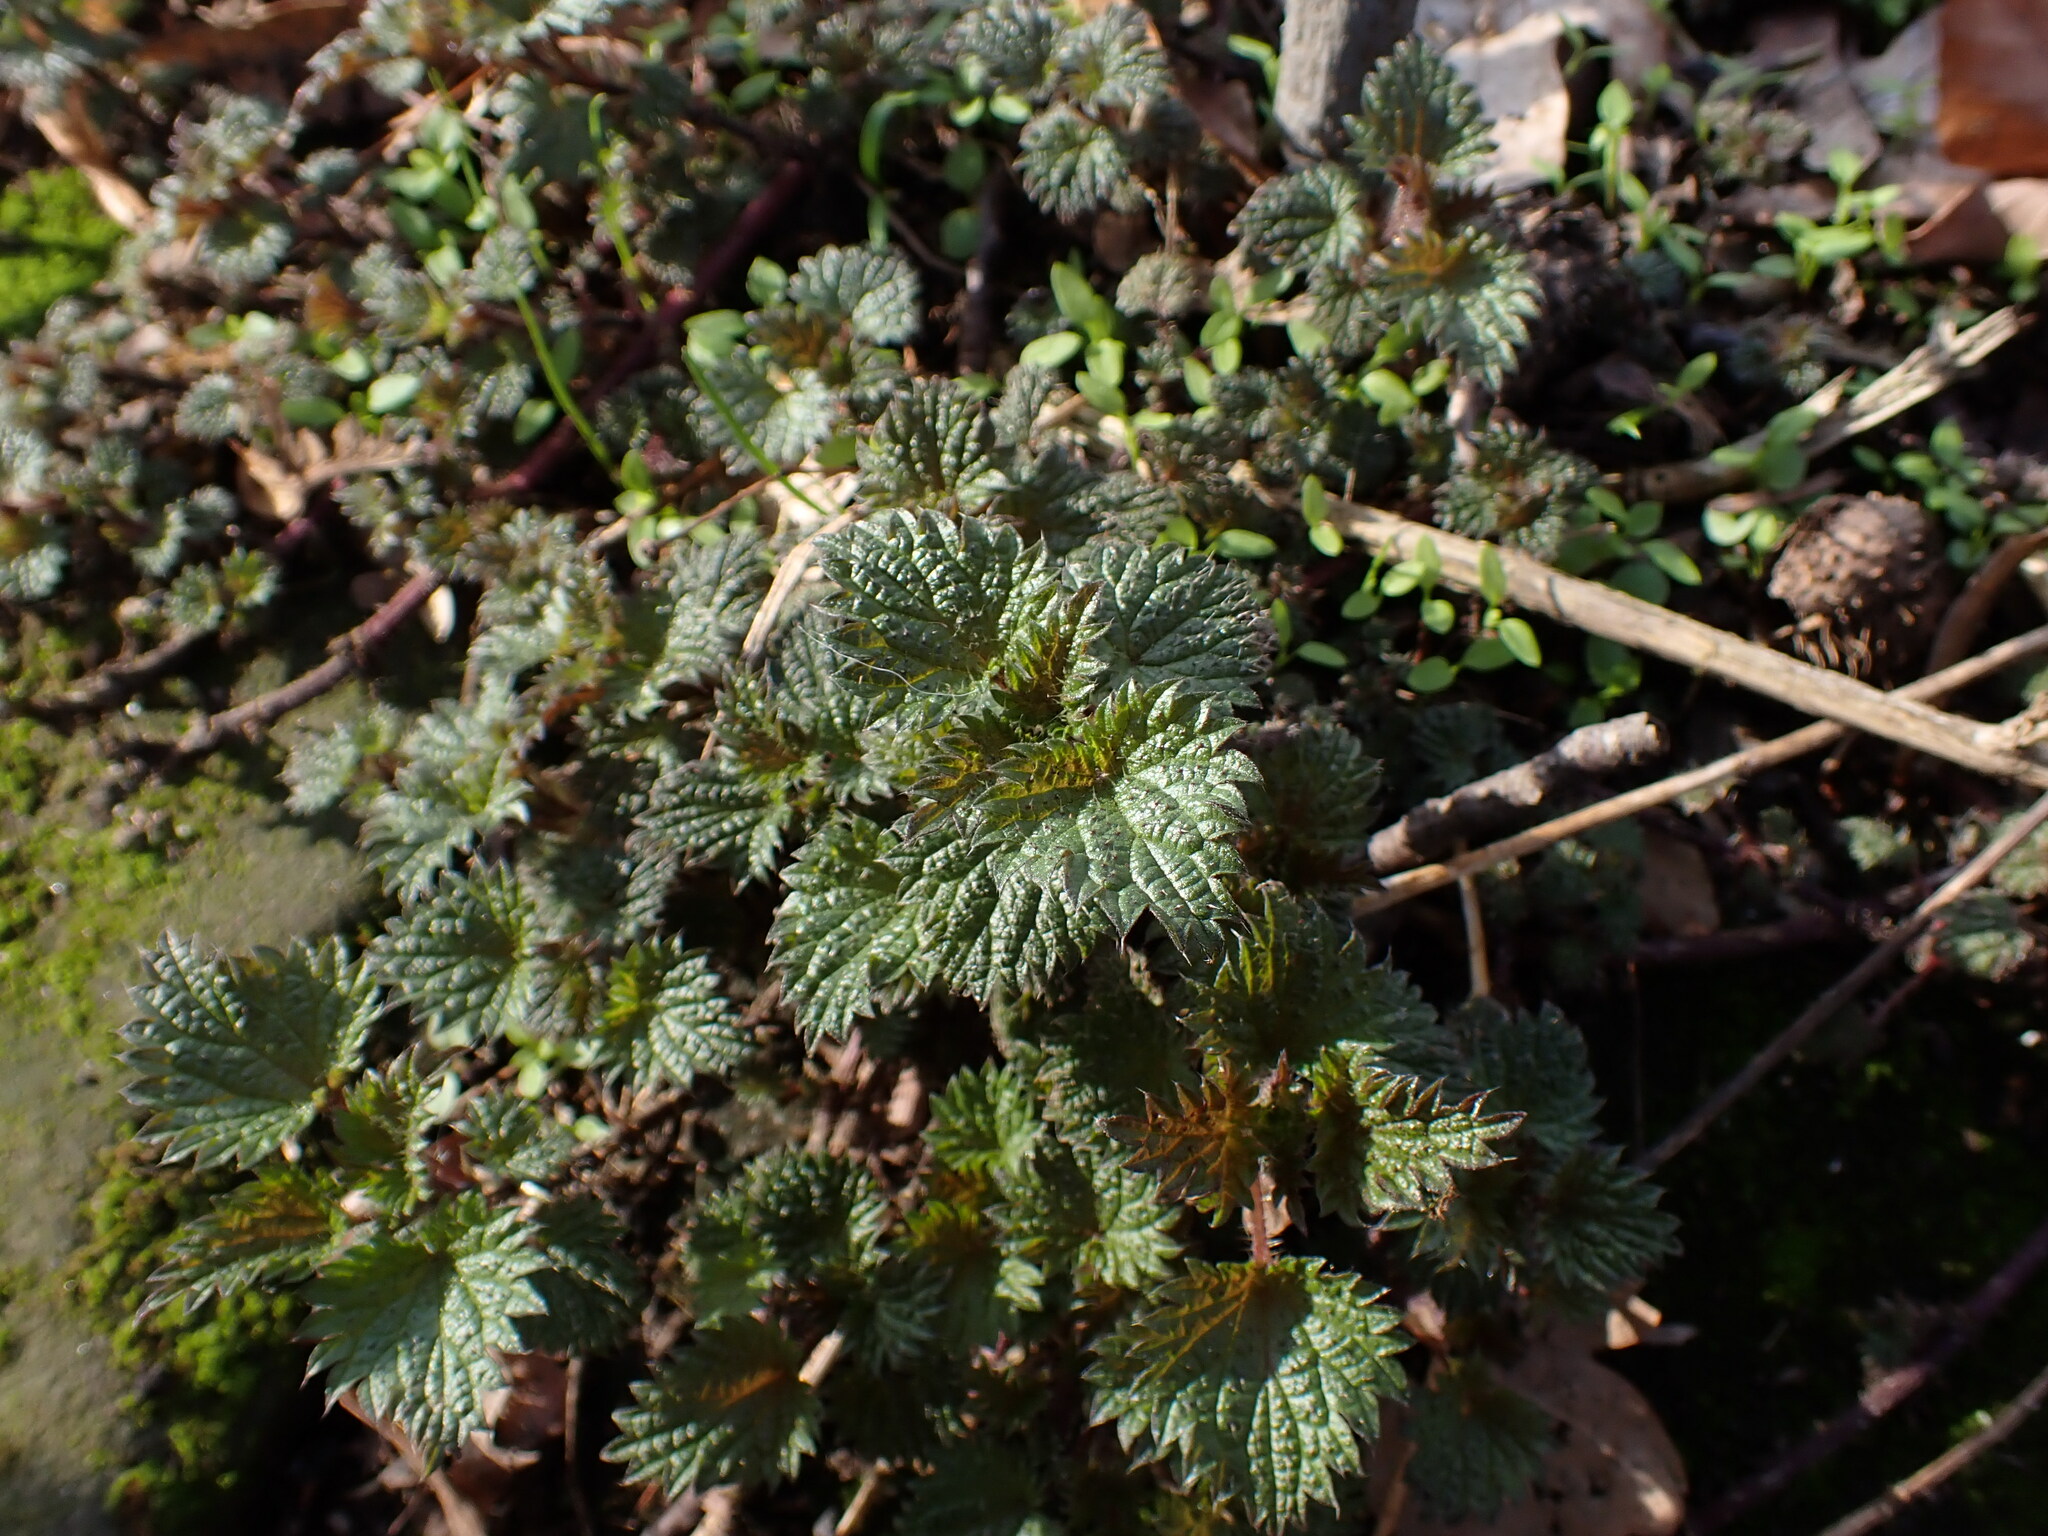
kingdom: Plantae
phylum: Tracheophyta
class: Magnoliopsida
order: Rosales
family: Urticaceae
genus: Urtica
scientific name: Urtica dioica
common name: Common nettle
